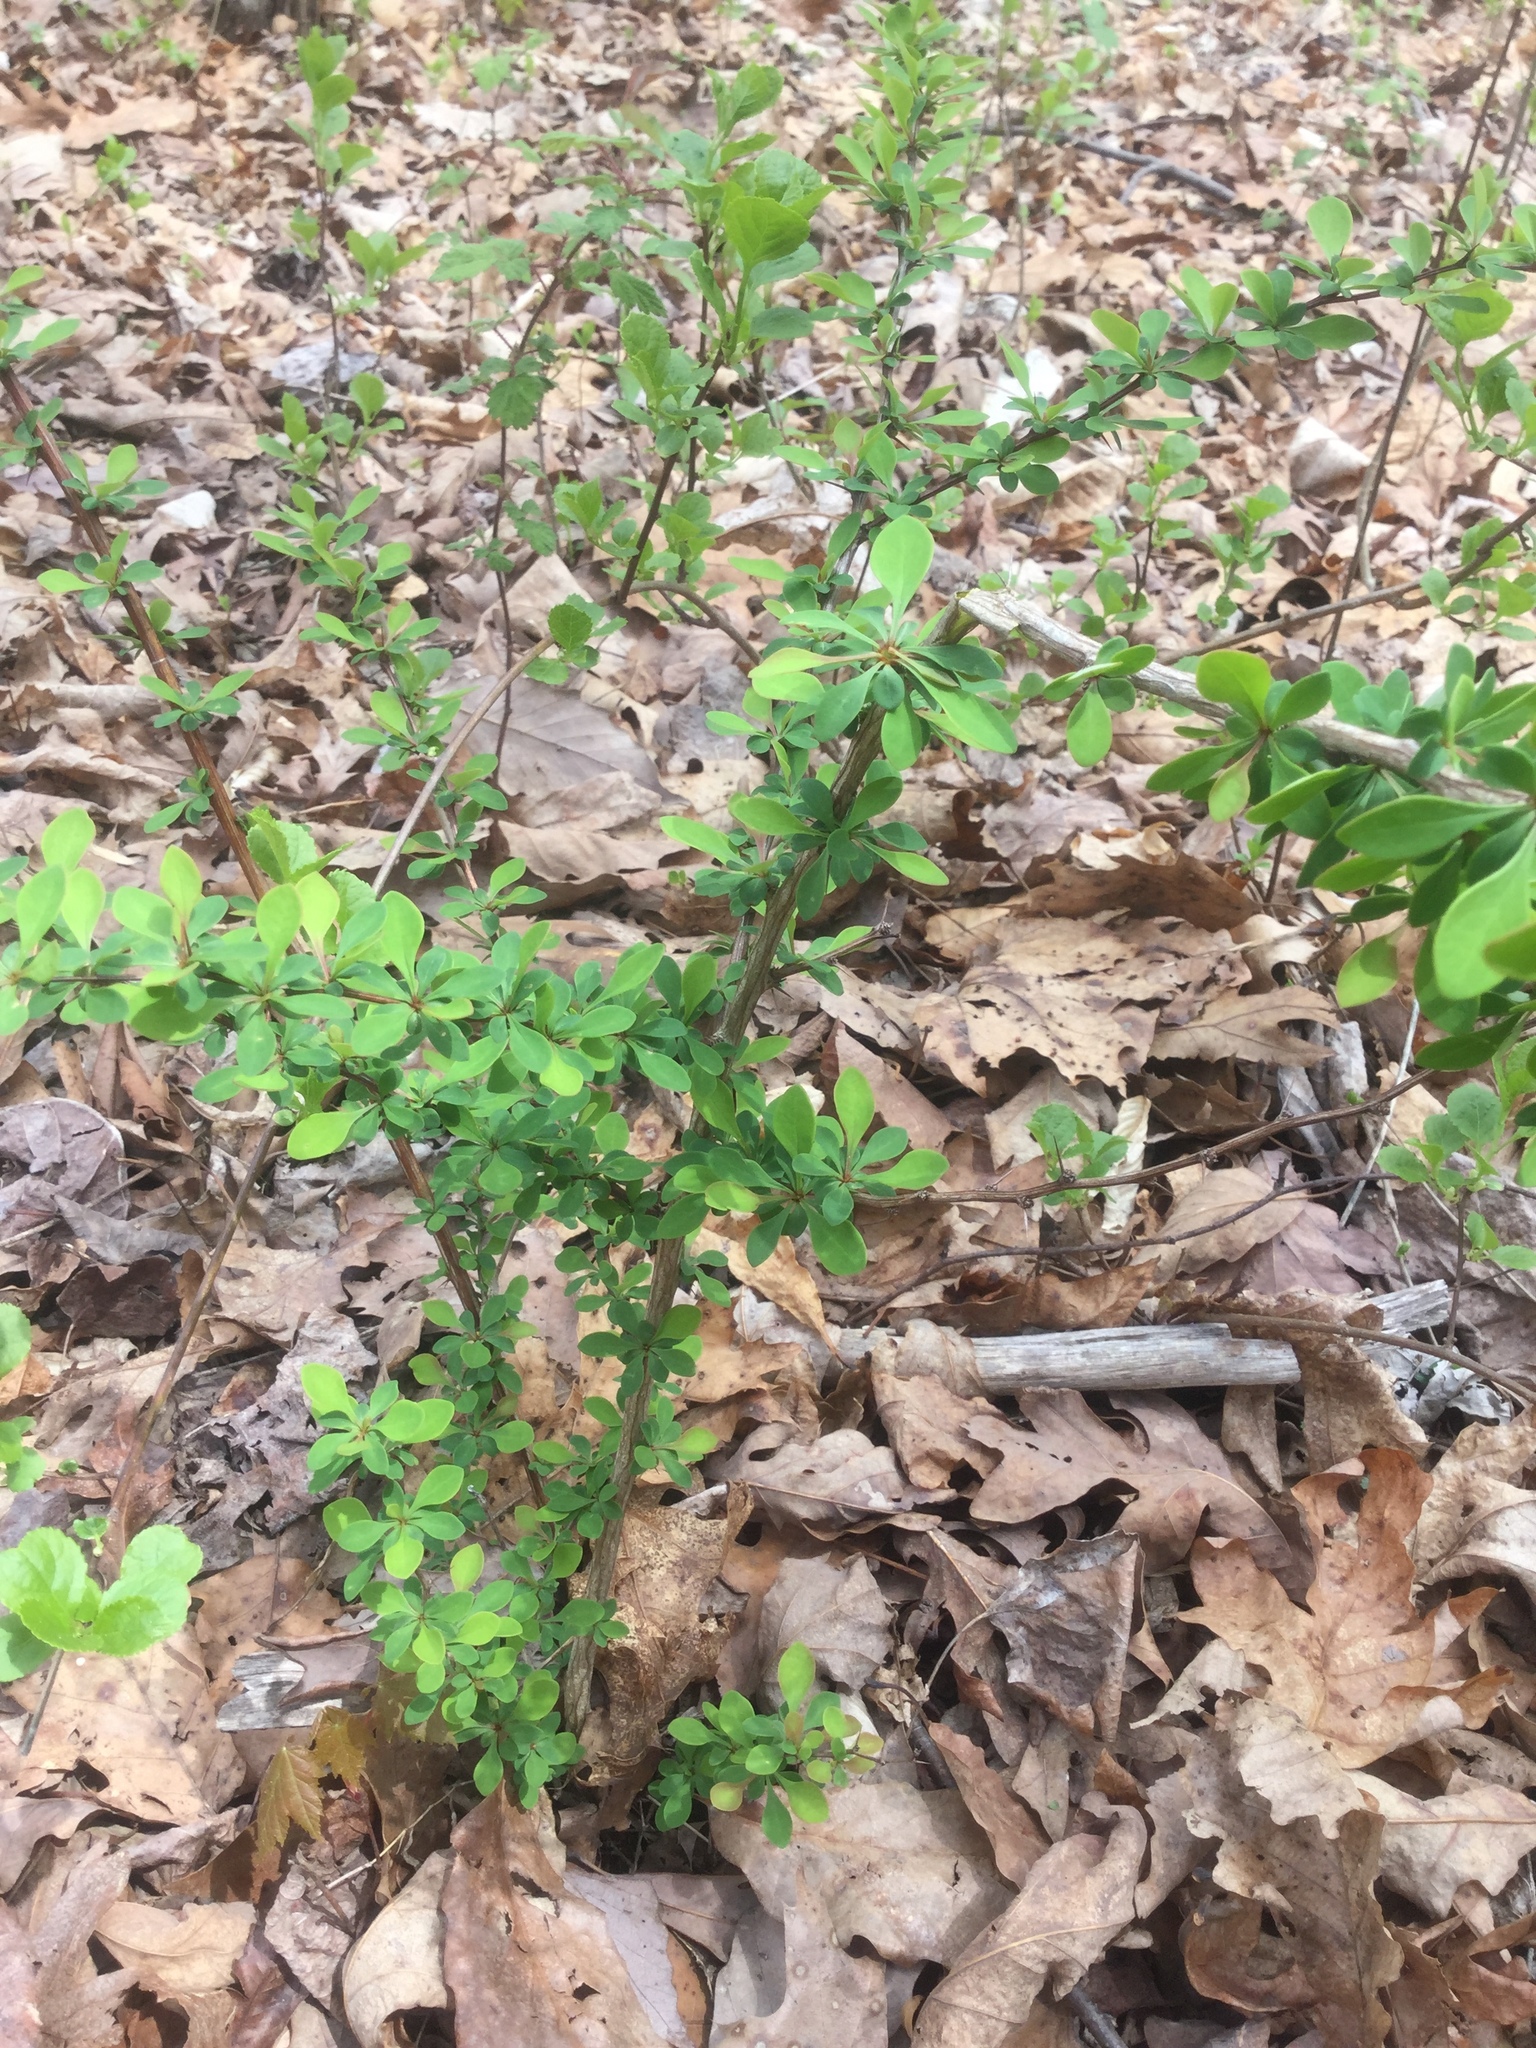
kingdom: Plantae
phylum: Tracheophyta
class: Magnoliopsida
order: Ranunculales
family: Berberidaceae
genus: Berberis
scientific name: Berberis thunbergii
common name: Japanese barberry
